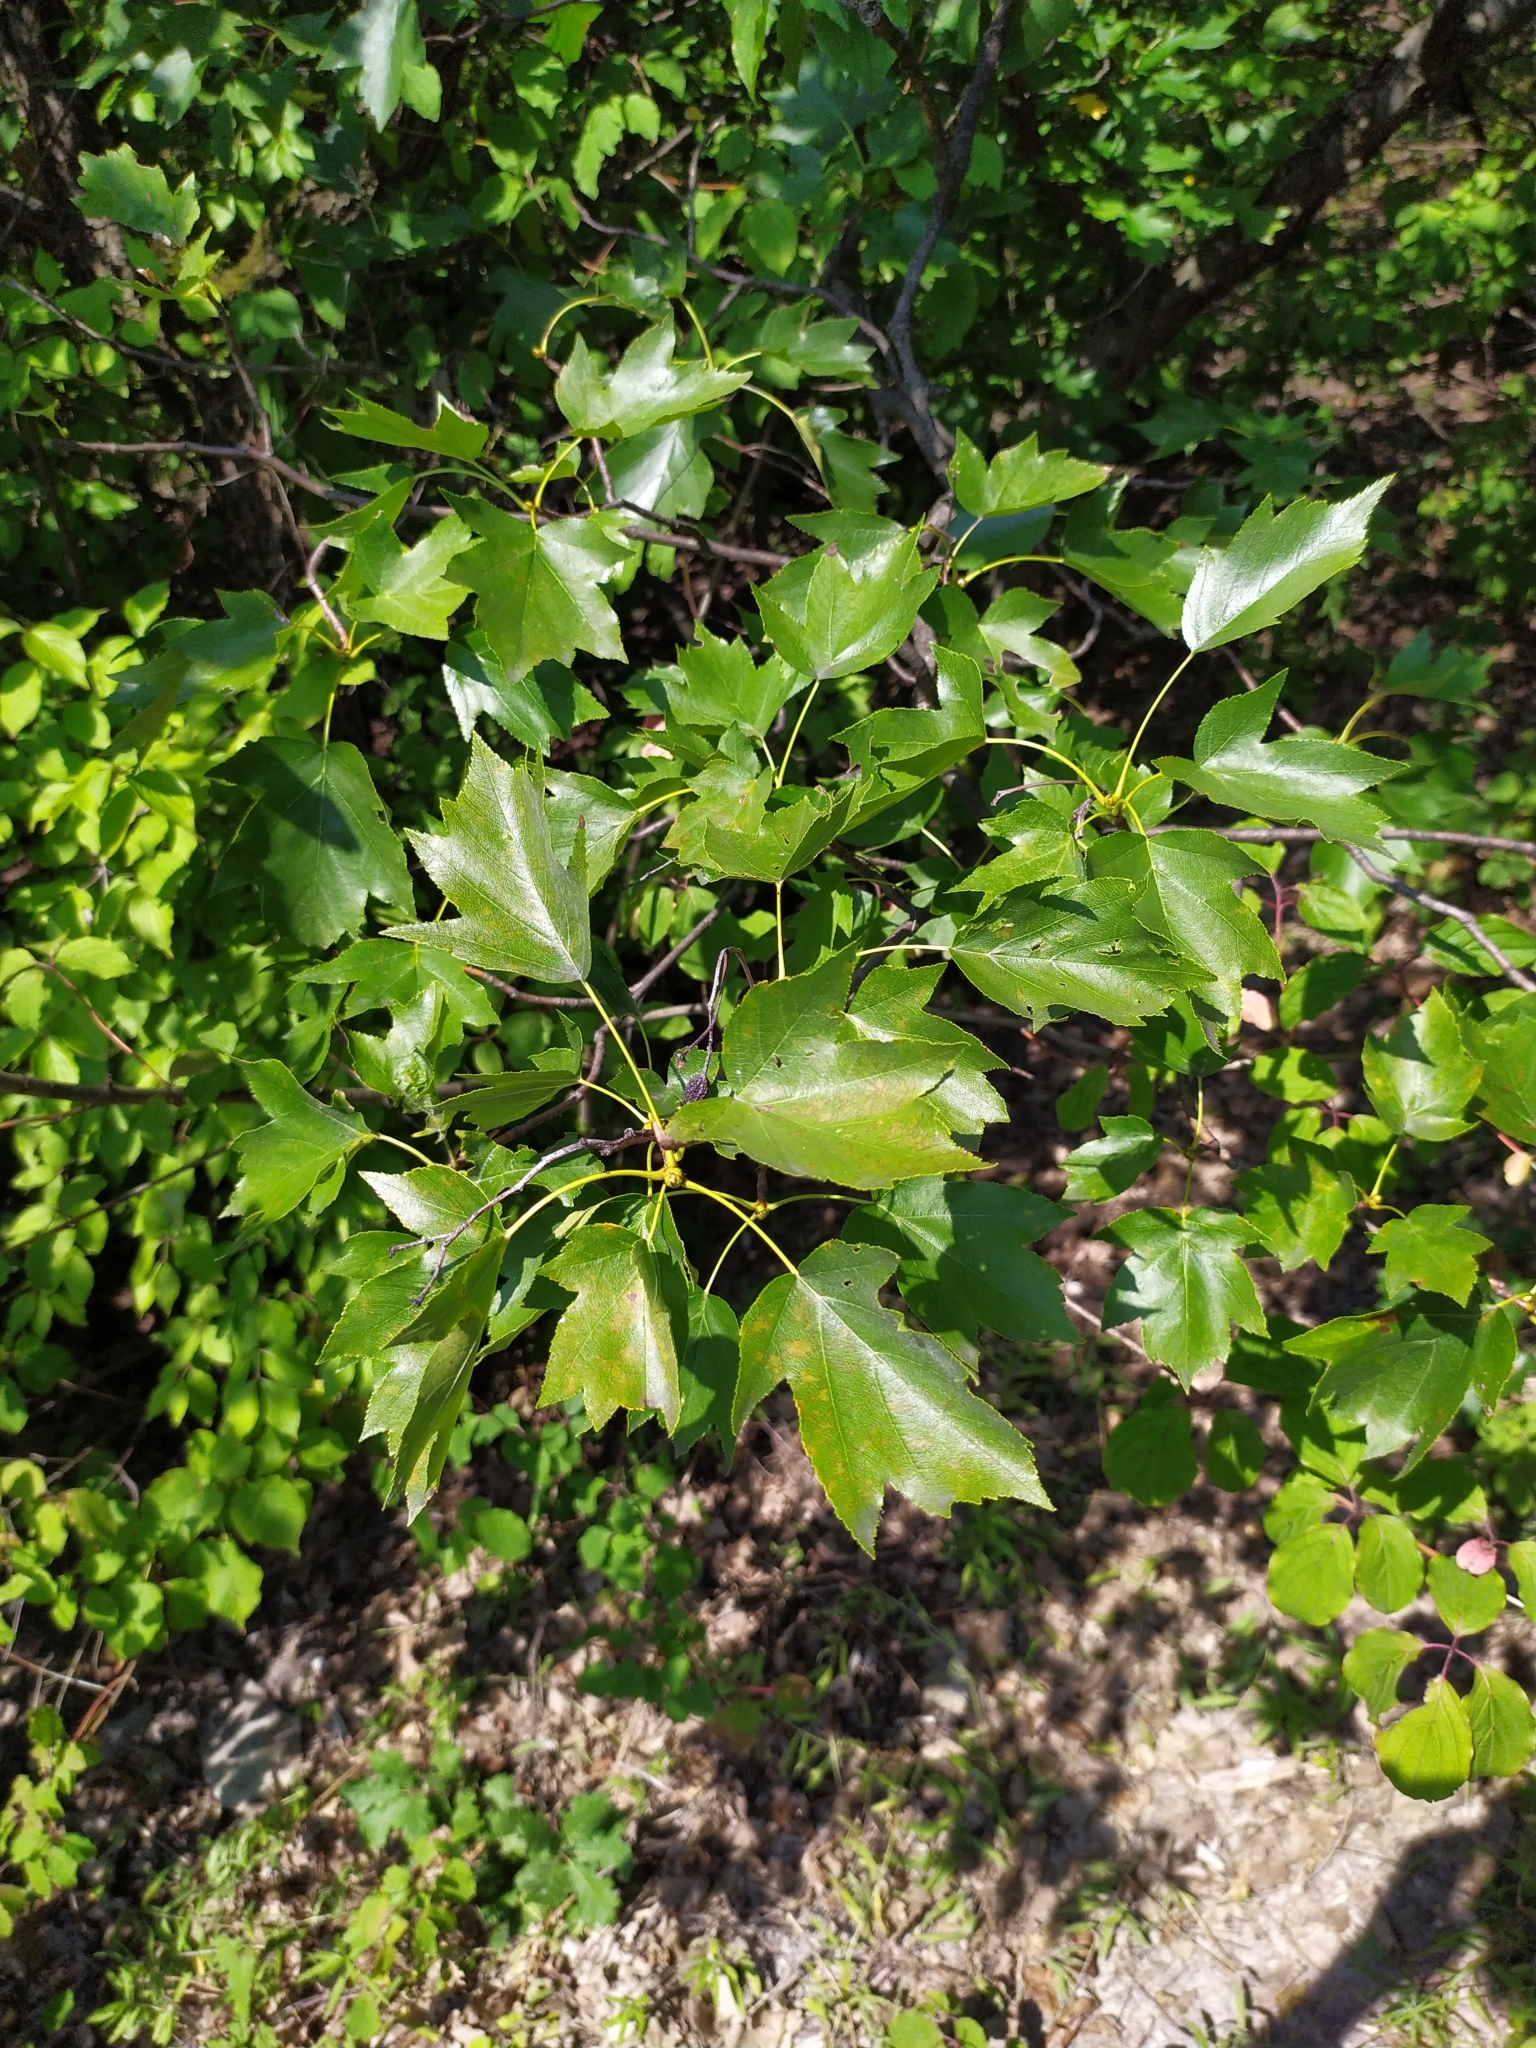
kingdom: Plantae
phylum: Tracheophyta
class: Magnoliopsida
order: Rosales
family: Rosaceae
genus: Torminalis
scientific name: Torminalis glaberrima
